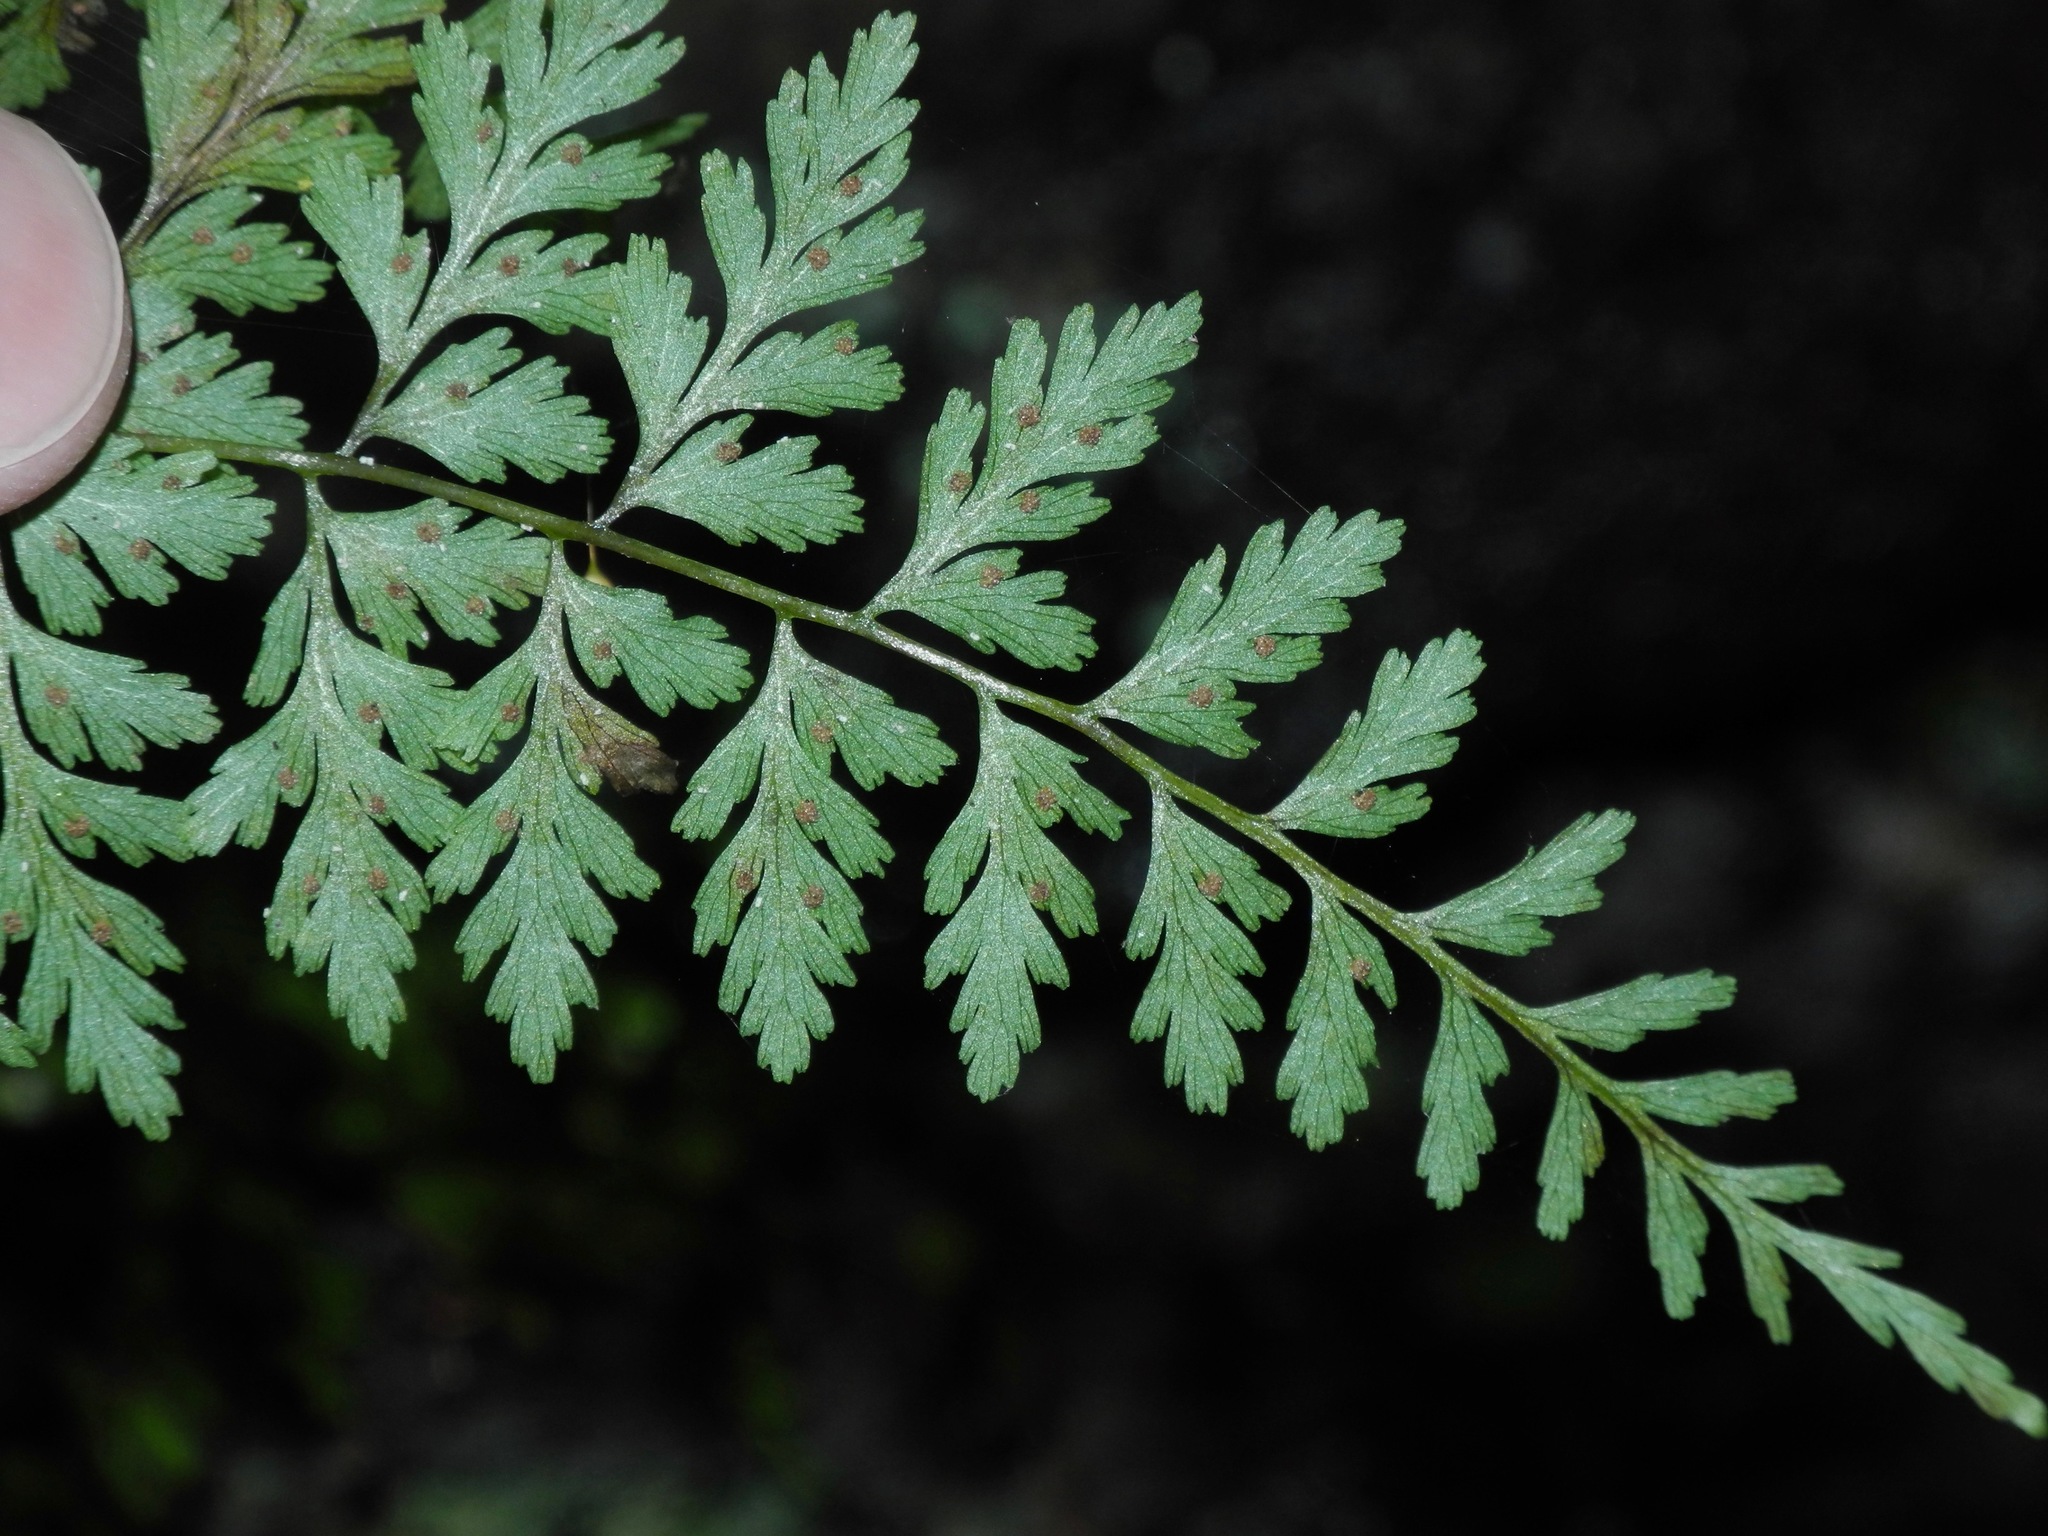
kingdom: Plantae
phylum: Tracheophyta
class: Polypodiopsida
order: Polypodiales
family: Cystopteridaceae
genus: Cystopteris
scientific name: Cystopteris fragilis
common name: Brittle bladder fern
